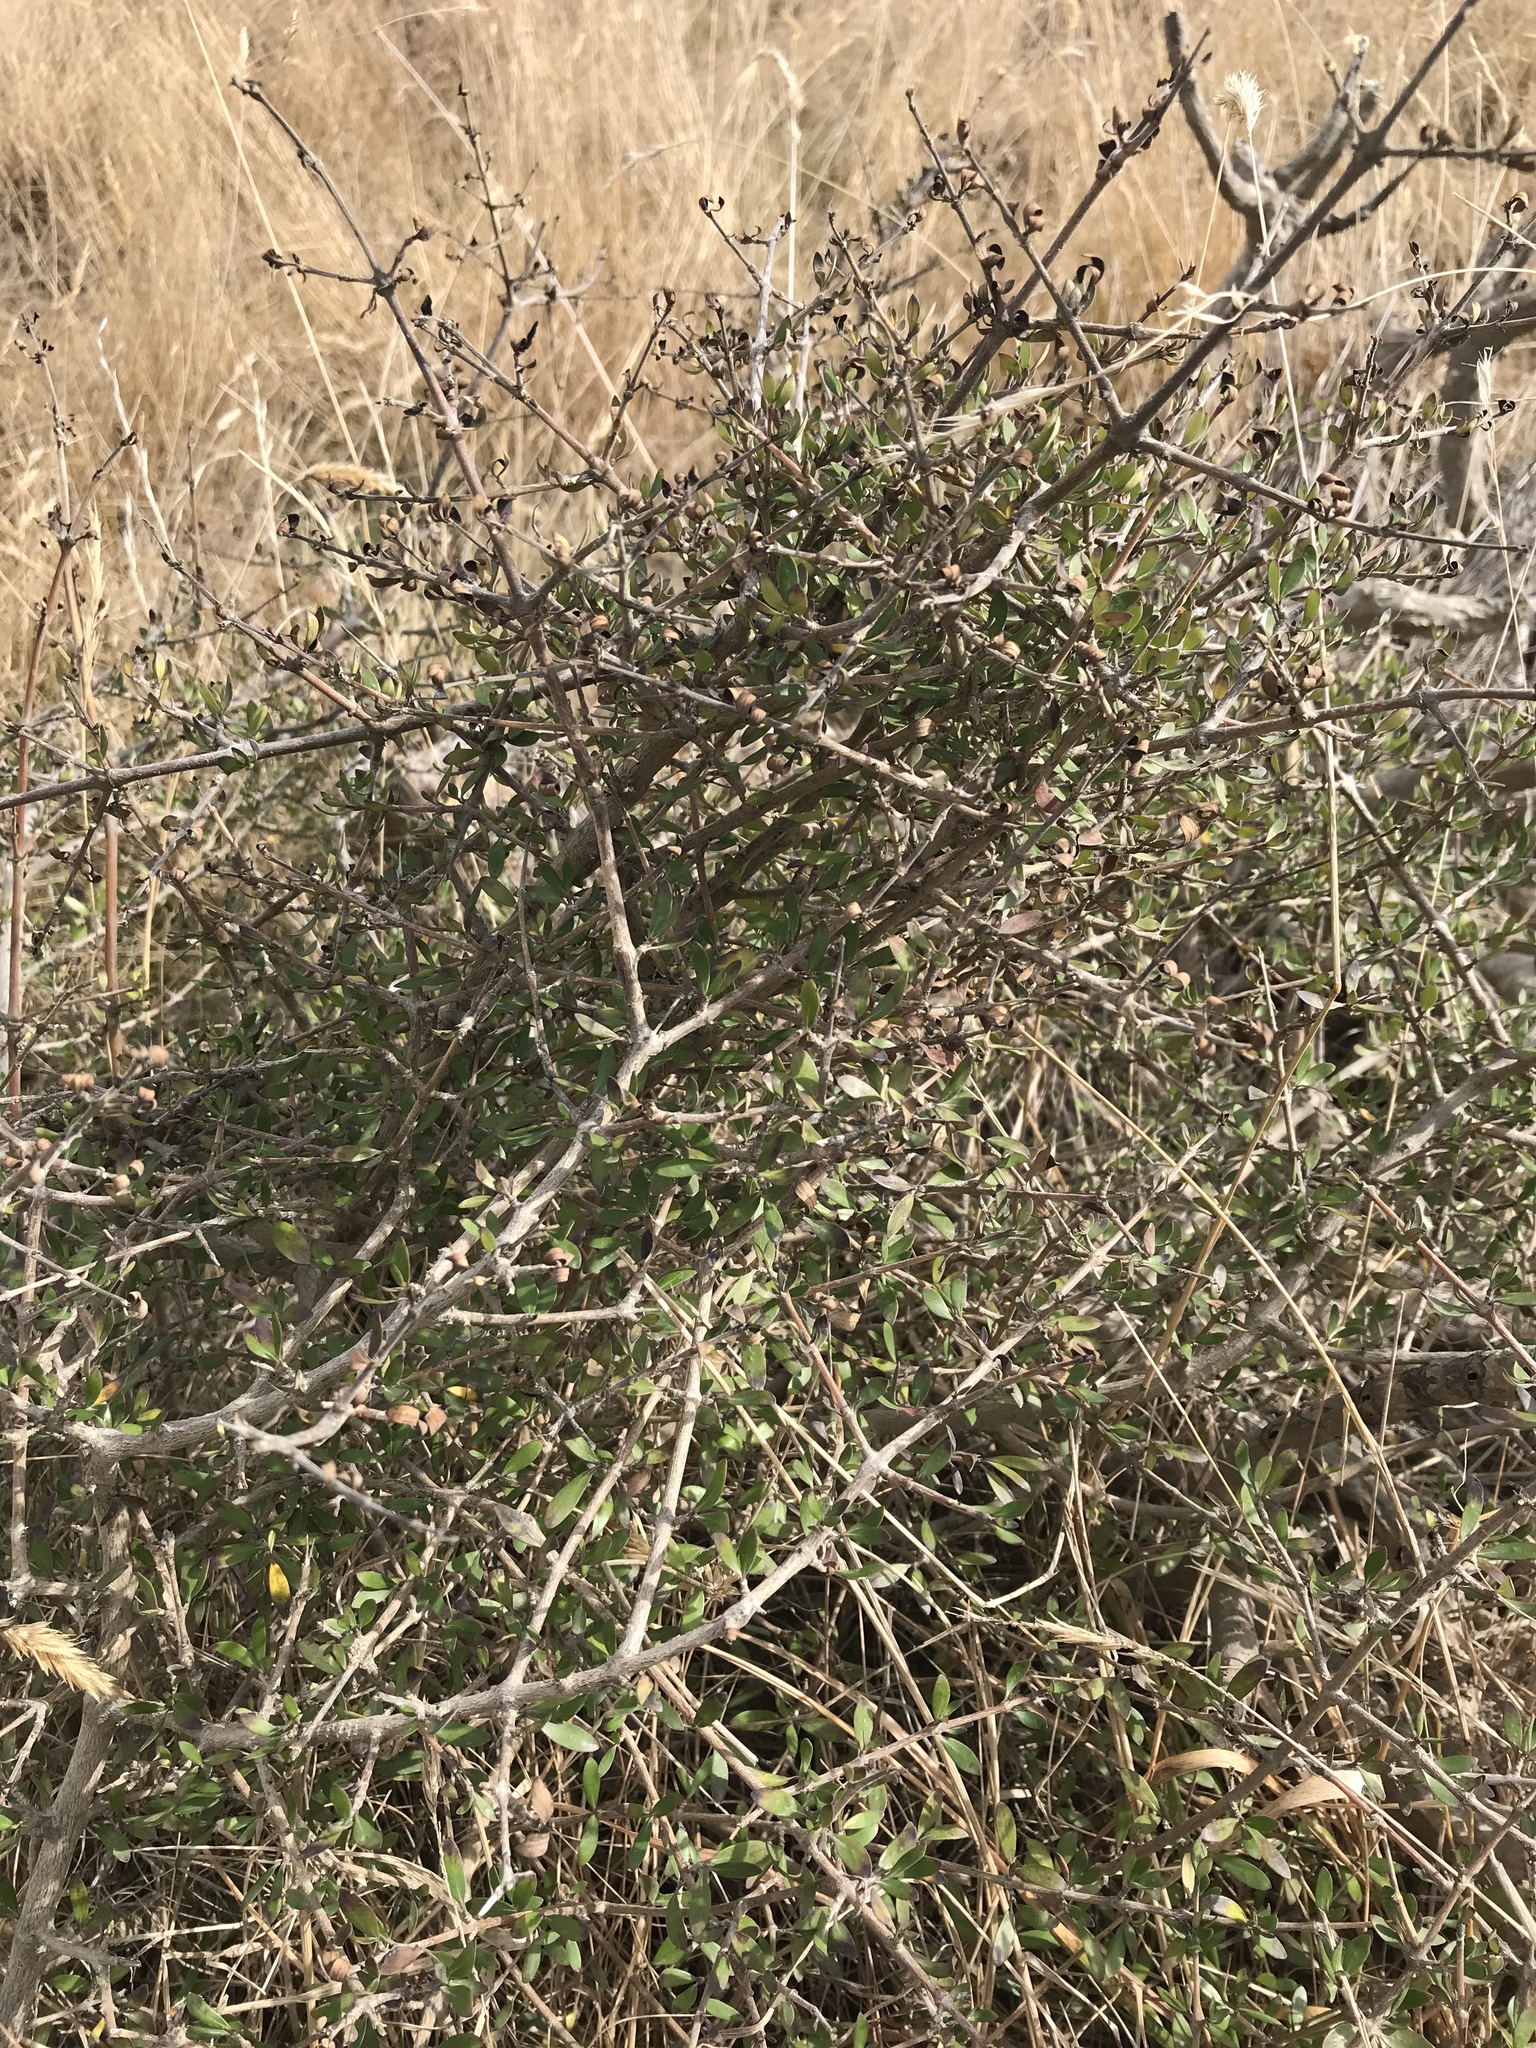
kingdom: Plantae
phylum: Tracheophyta
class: Magnoliopsida
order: Gentianales
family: Rubiaceae
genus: Coprosma
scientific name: Coprosma propinqua
